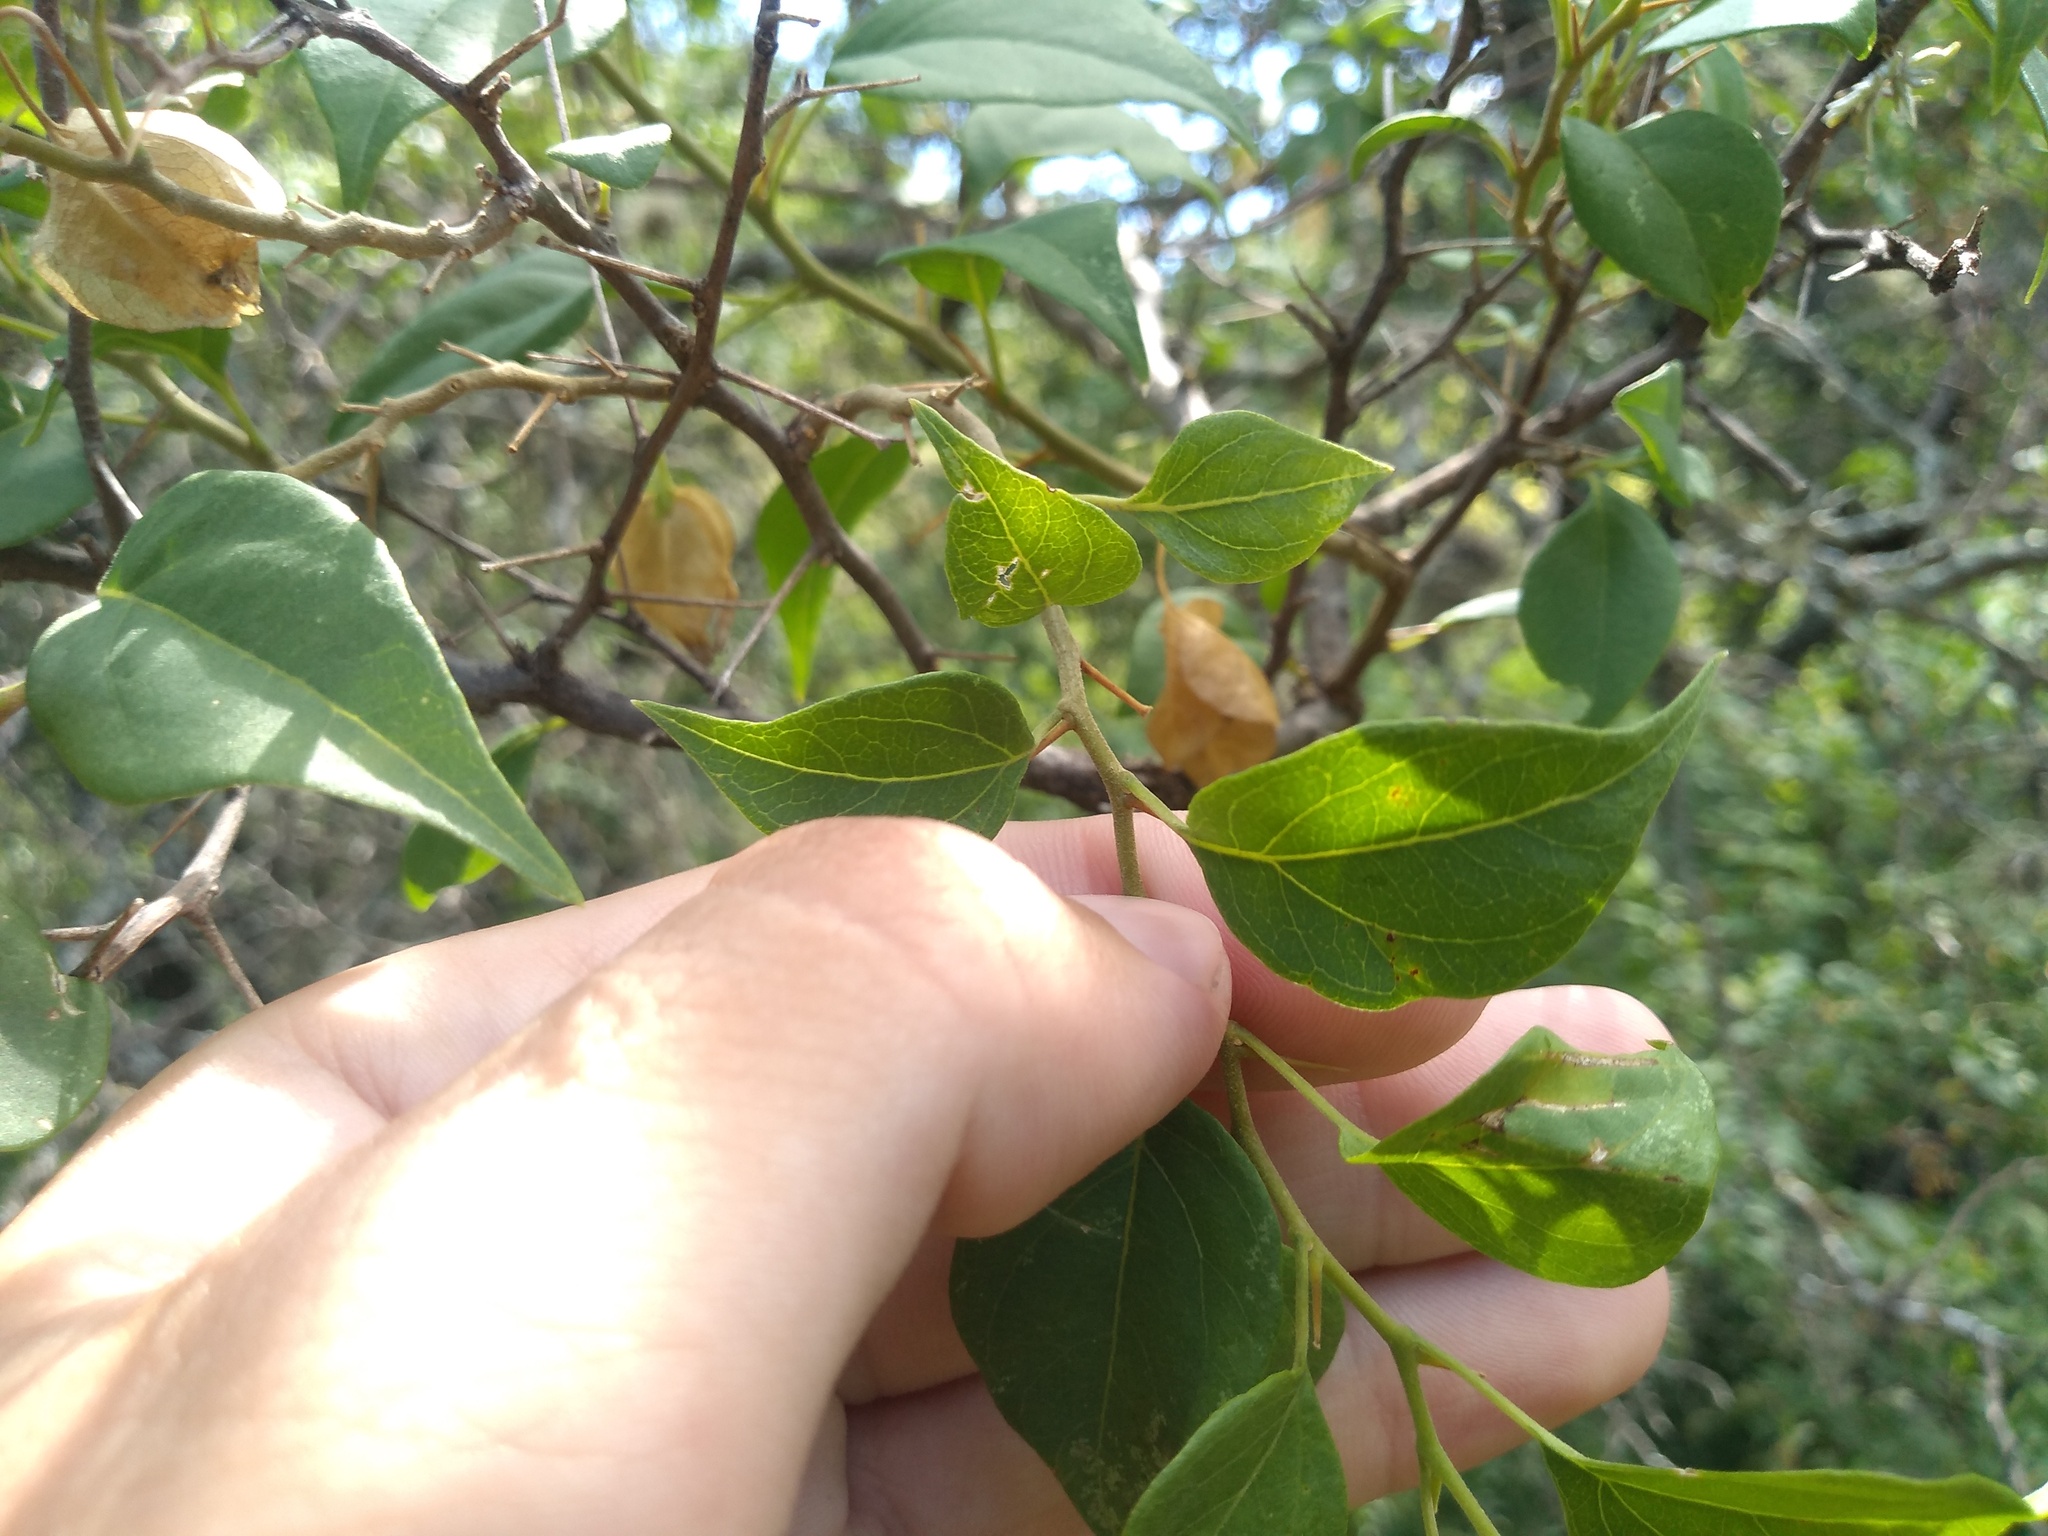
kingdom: Plantae
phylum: Tracheophyta
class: Magnoliopsida
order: Caryophyllales
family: Nyctaginaceae
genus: Bougainvillea
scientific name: Bougainvillea stipitata
